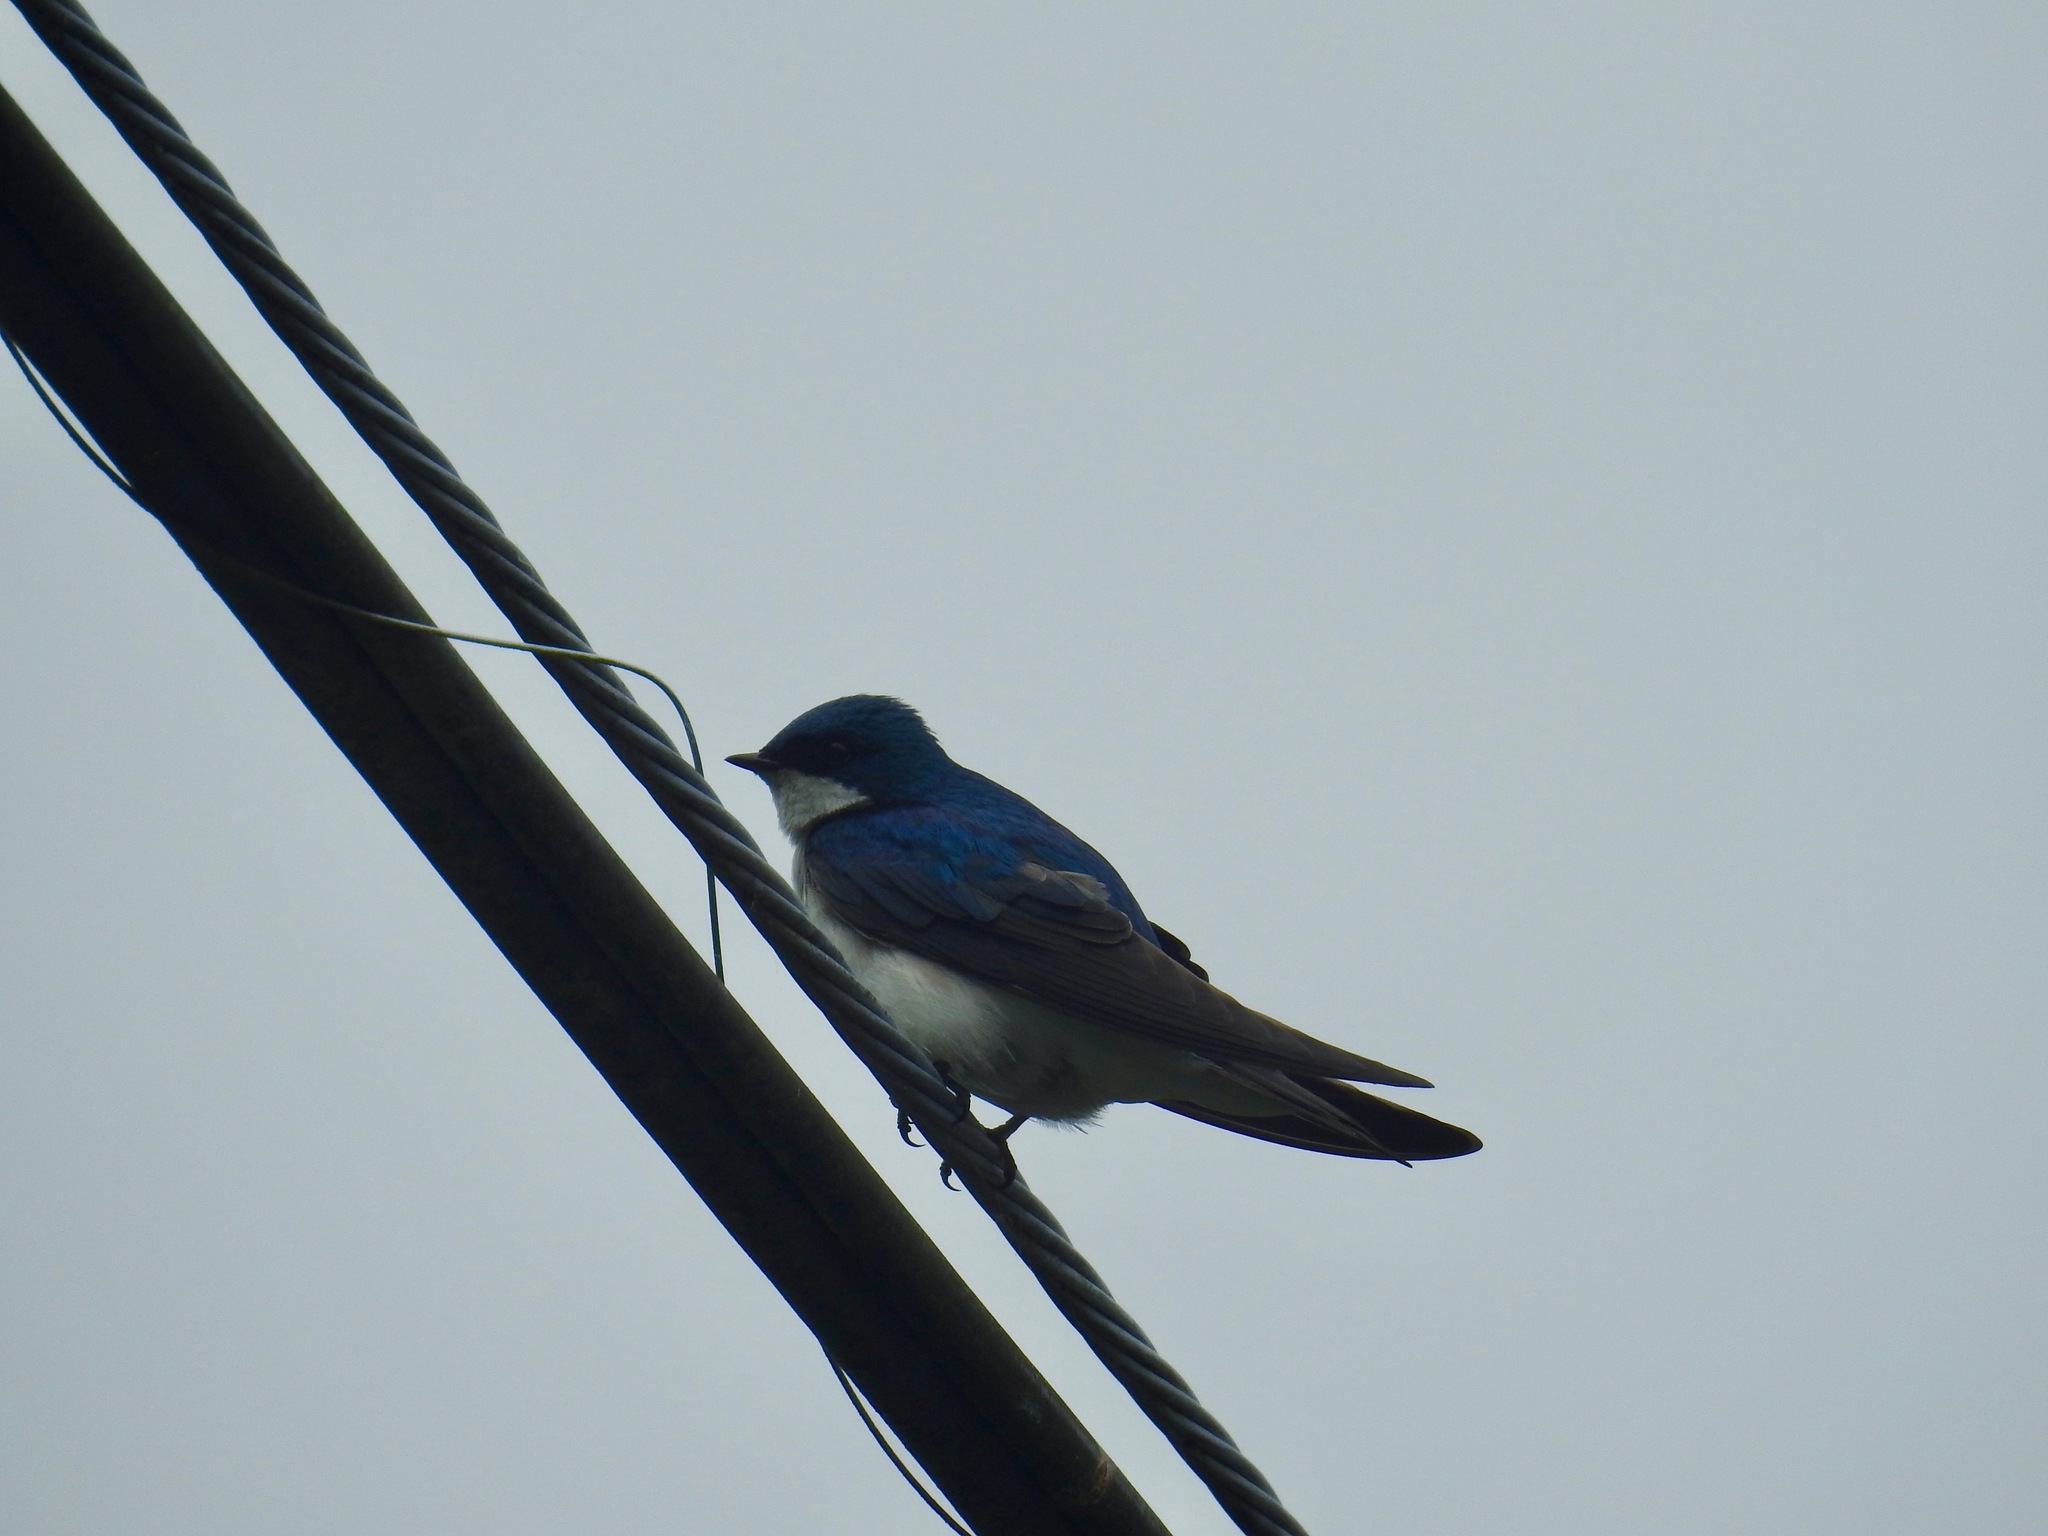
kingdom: Animalia
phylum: Chordata
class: Aves
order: Passeriformes
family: Hirundinidae
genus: Tachycineta
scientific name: Tachycineta bicolor
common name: Tree swallow
